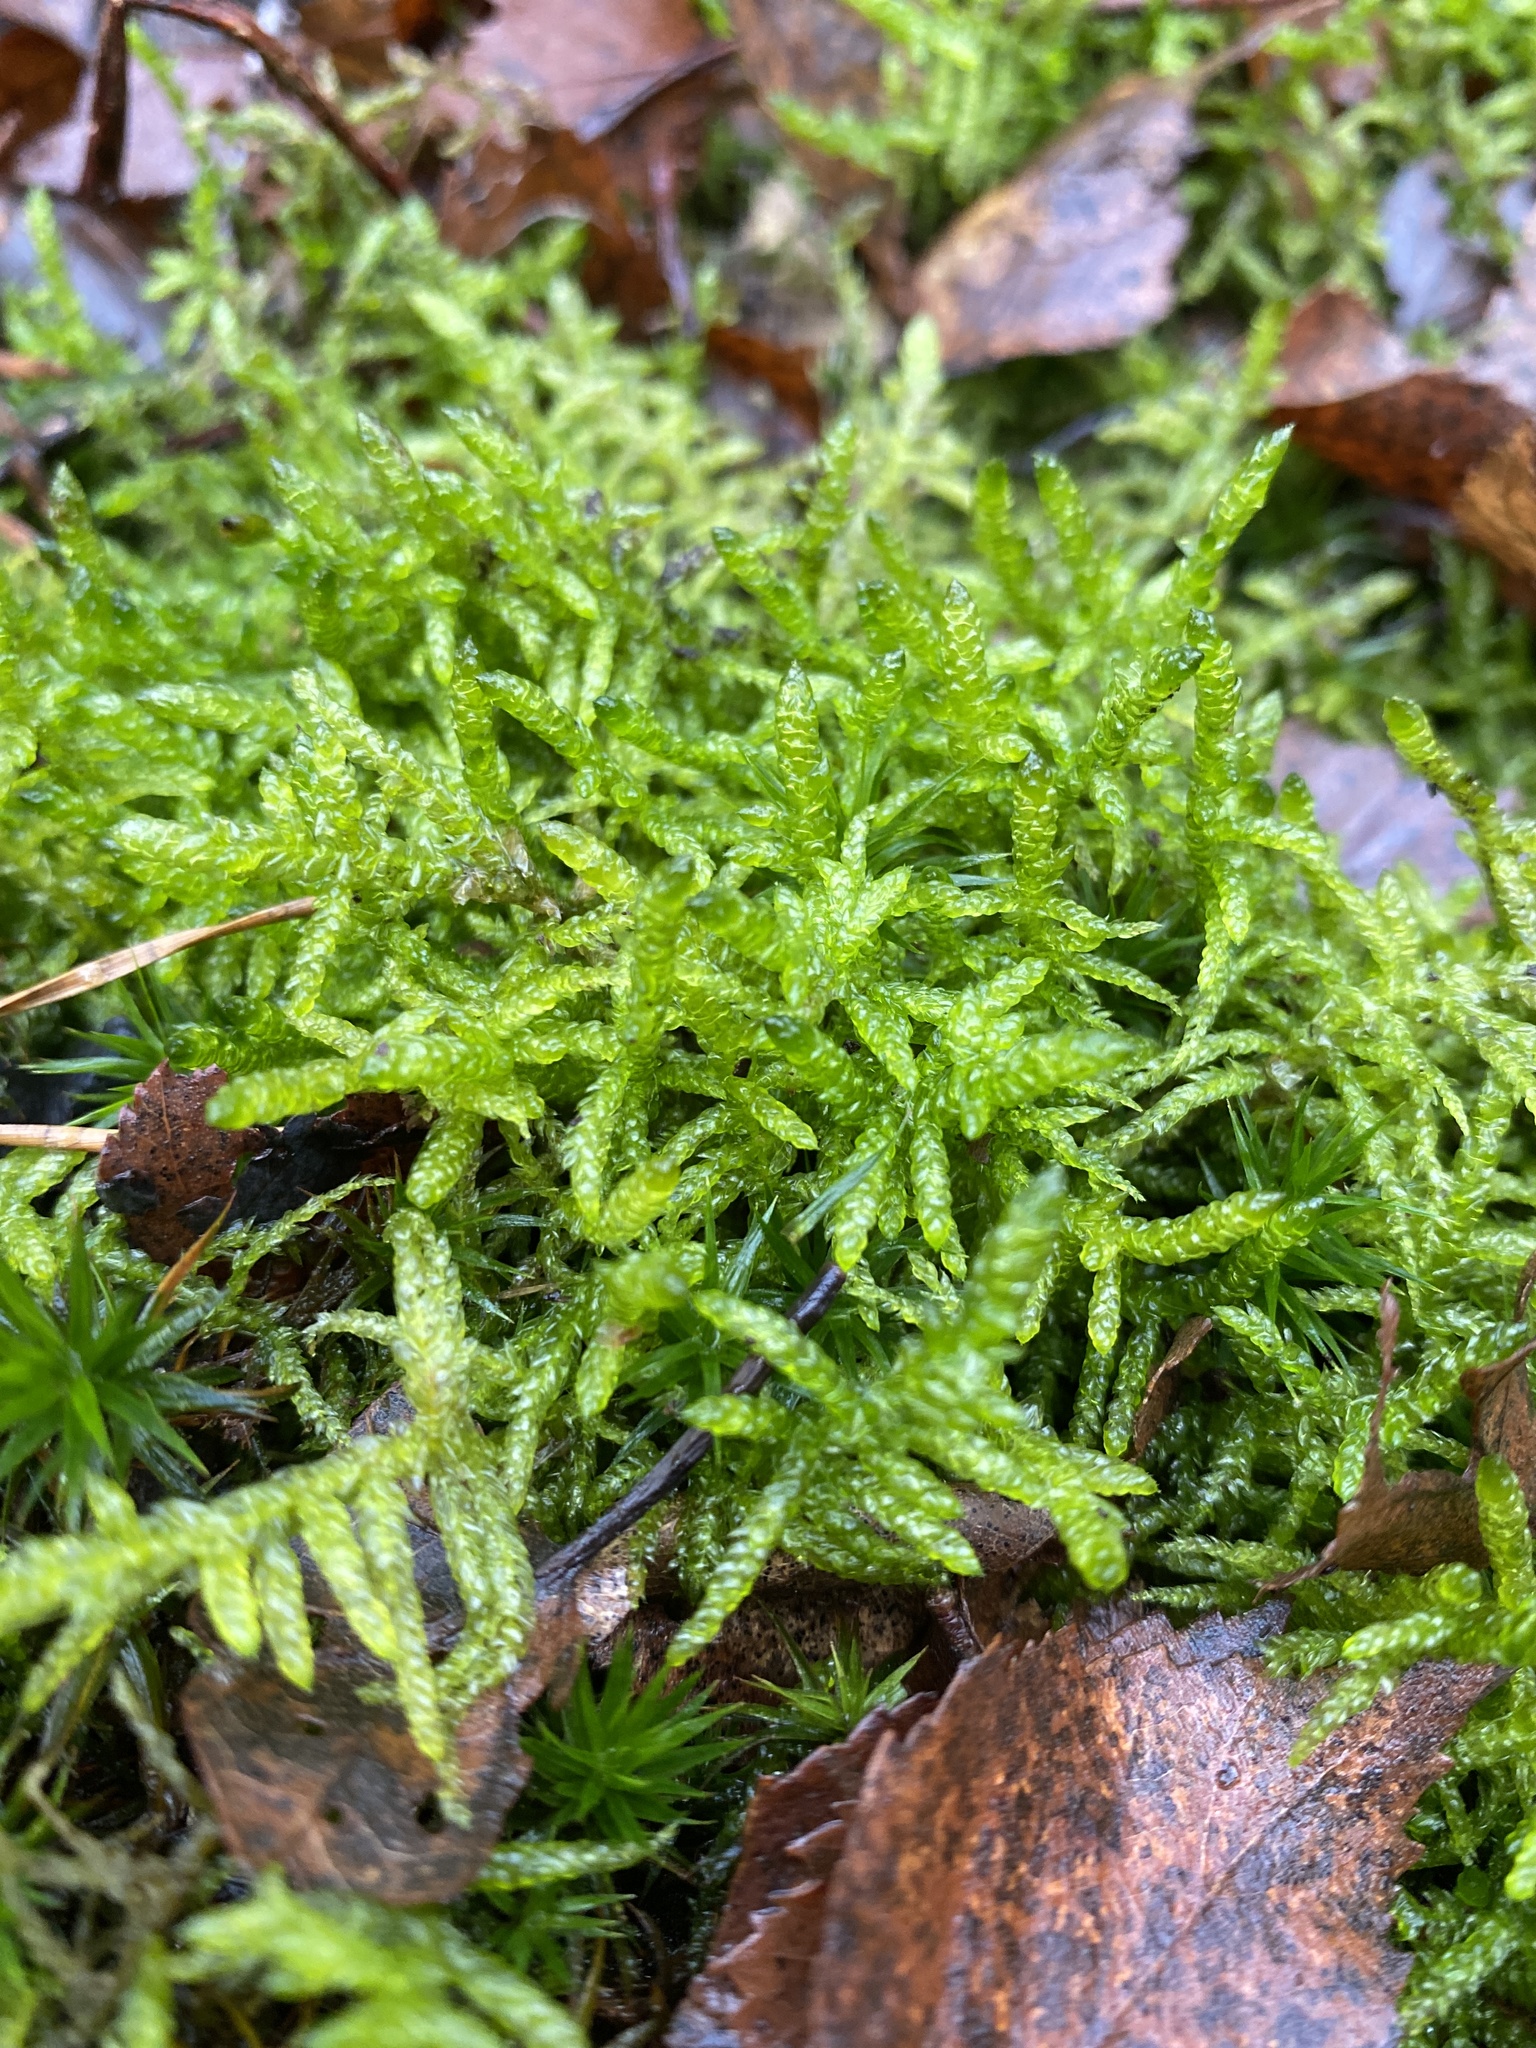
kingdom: Plantae
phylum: Bryophyta
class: Bryopsida
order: Hypnales
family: Brachytheciaceae
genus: Pseudoscleropodium
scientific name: Pseudoscleropodium purum
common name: Neat feather-moss
